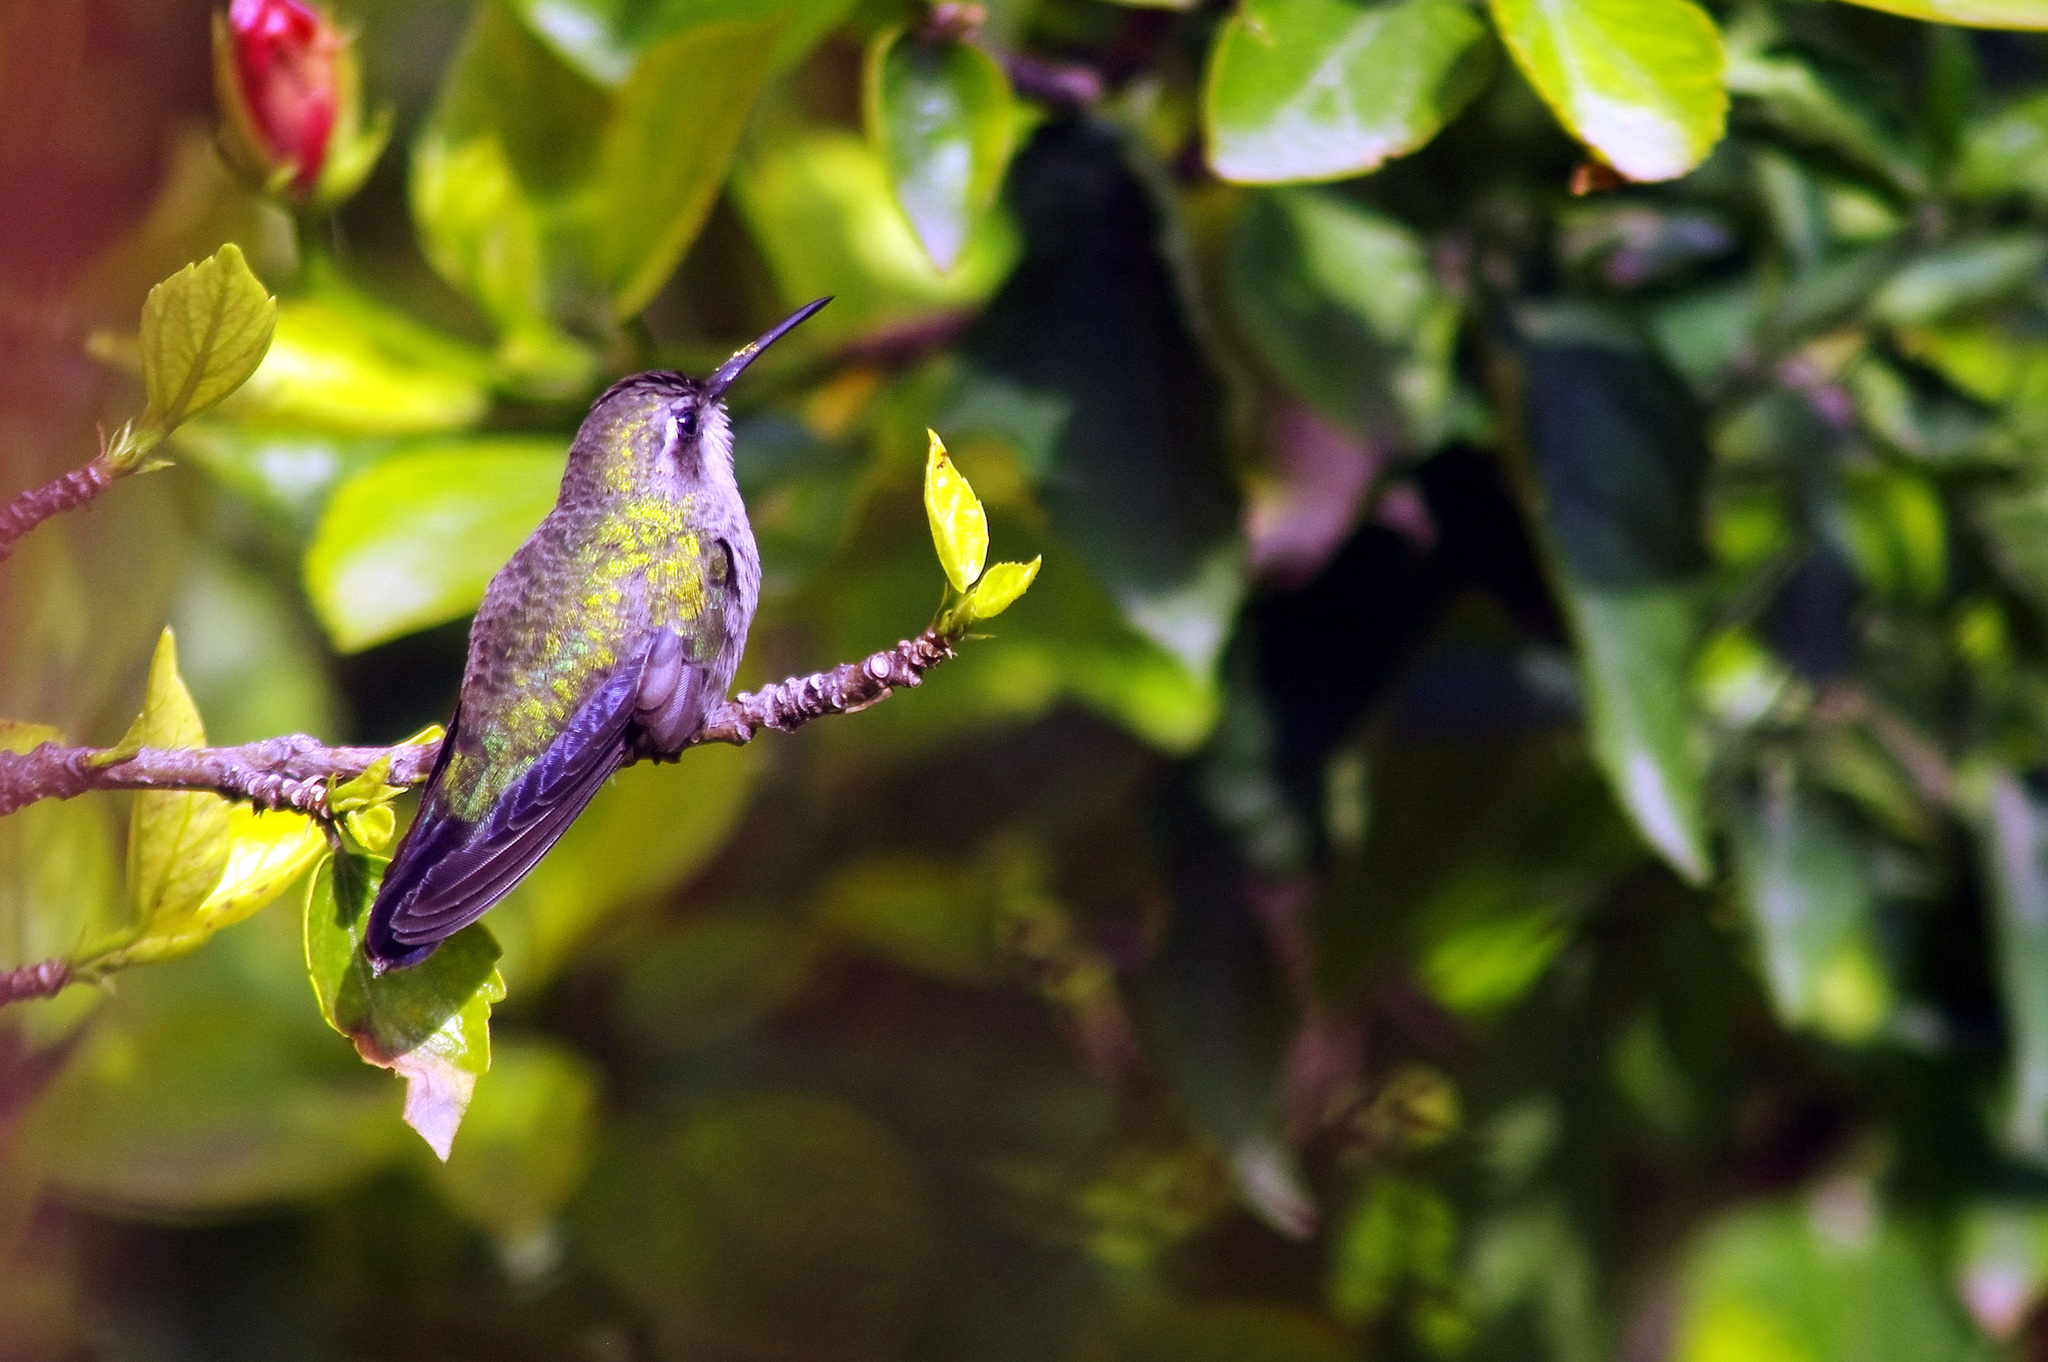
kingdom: Animalia
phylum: Chordata
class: Aves
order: Apodiformes
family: Trochilidae
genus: Cynanthus
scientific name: Cynanthus latirostris
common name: Broad-billed hummingbird
